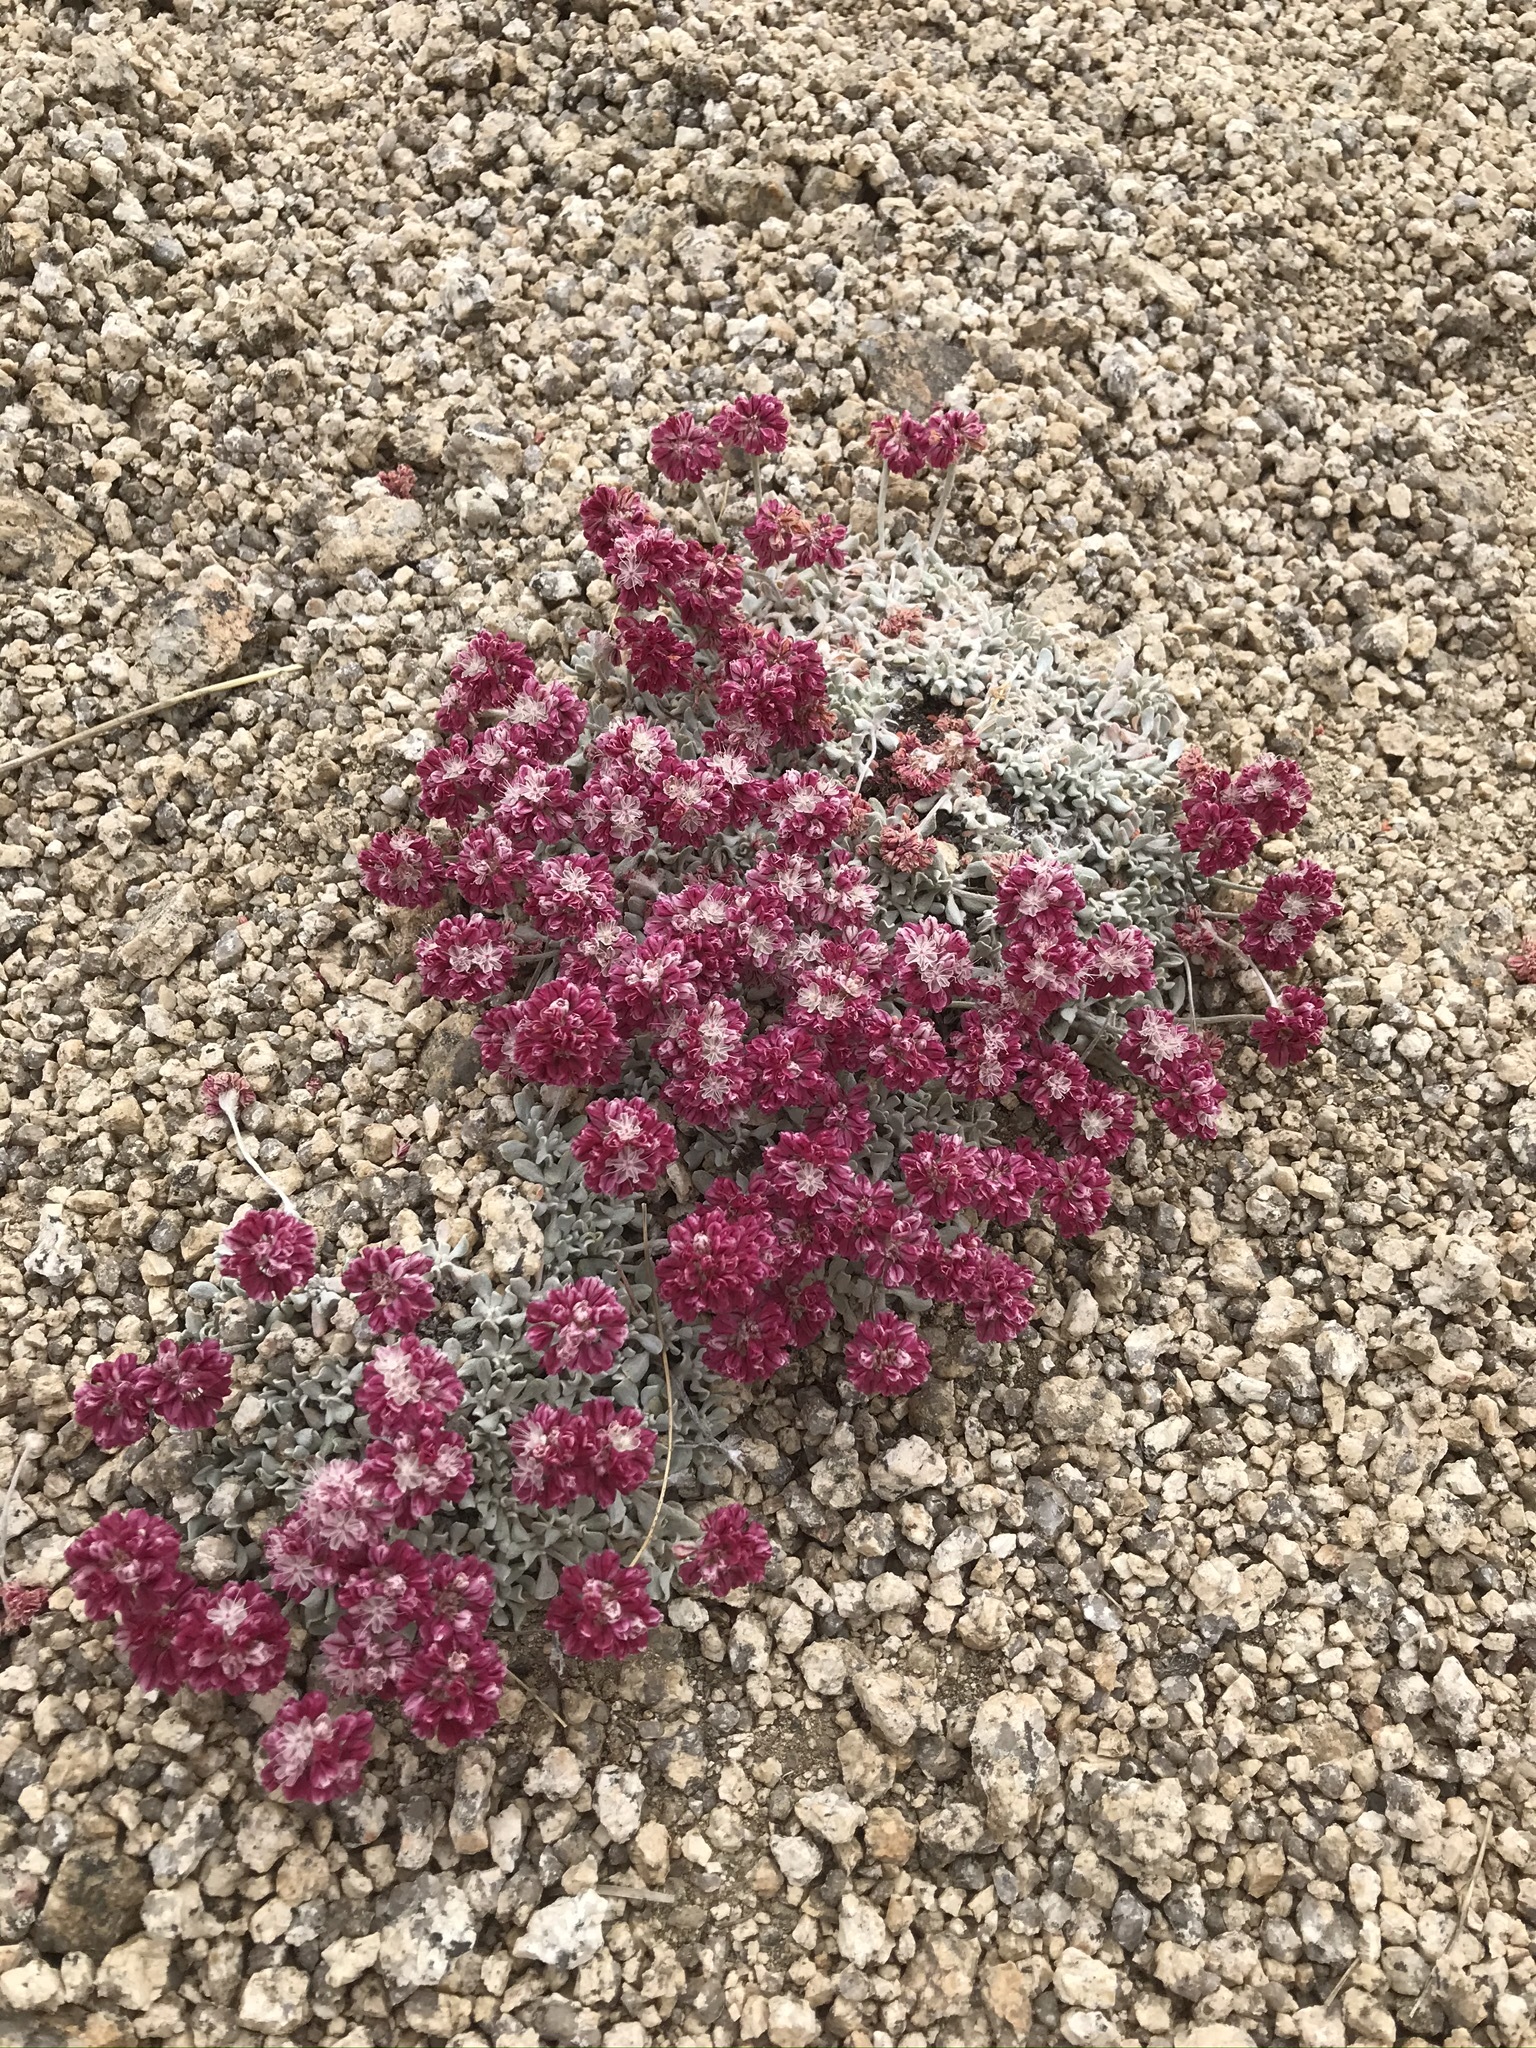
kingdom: Plantae
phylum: Tracheophyta
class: Magnoliopsida
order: Caryophyllales
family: Polygonaceae
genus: Eriogonum
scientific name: Eriogonum ovalifolium
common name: Cushion buckwheat
